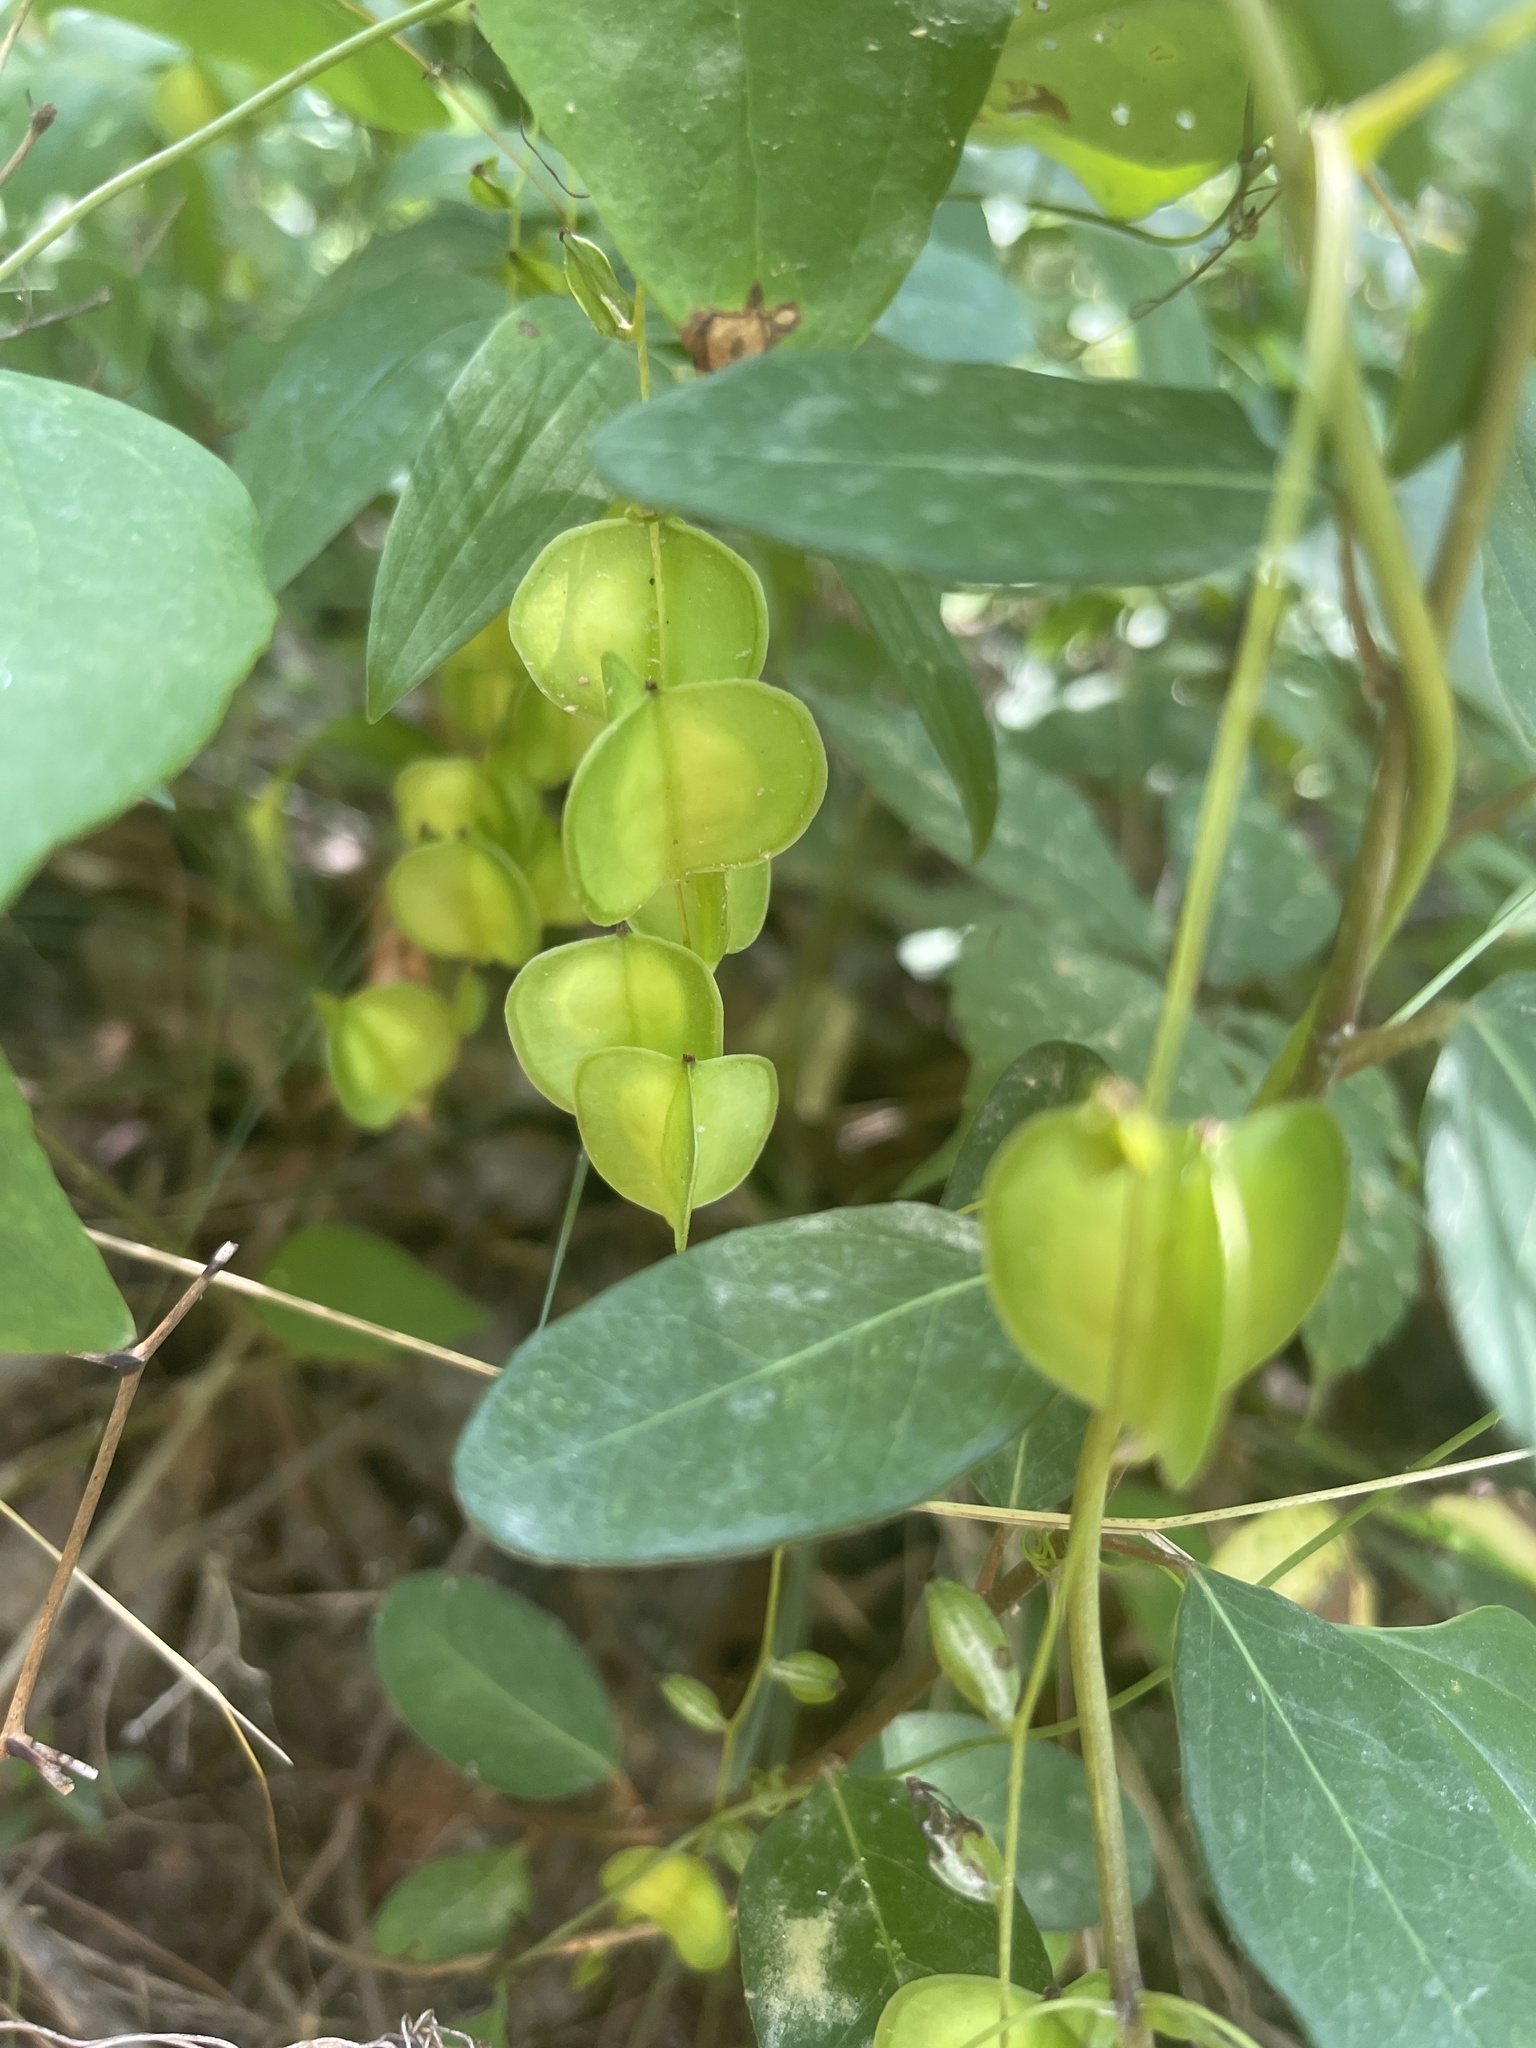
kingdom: Plantae
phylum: Tracheophyta
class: Liliopsida
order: Dioscoreales
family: Dioscoreaceae
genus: Dioscorea
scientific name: Dioscorea villosa
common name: Wild yam
